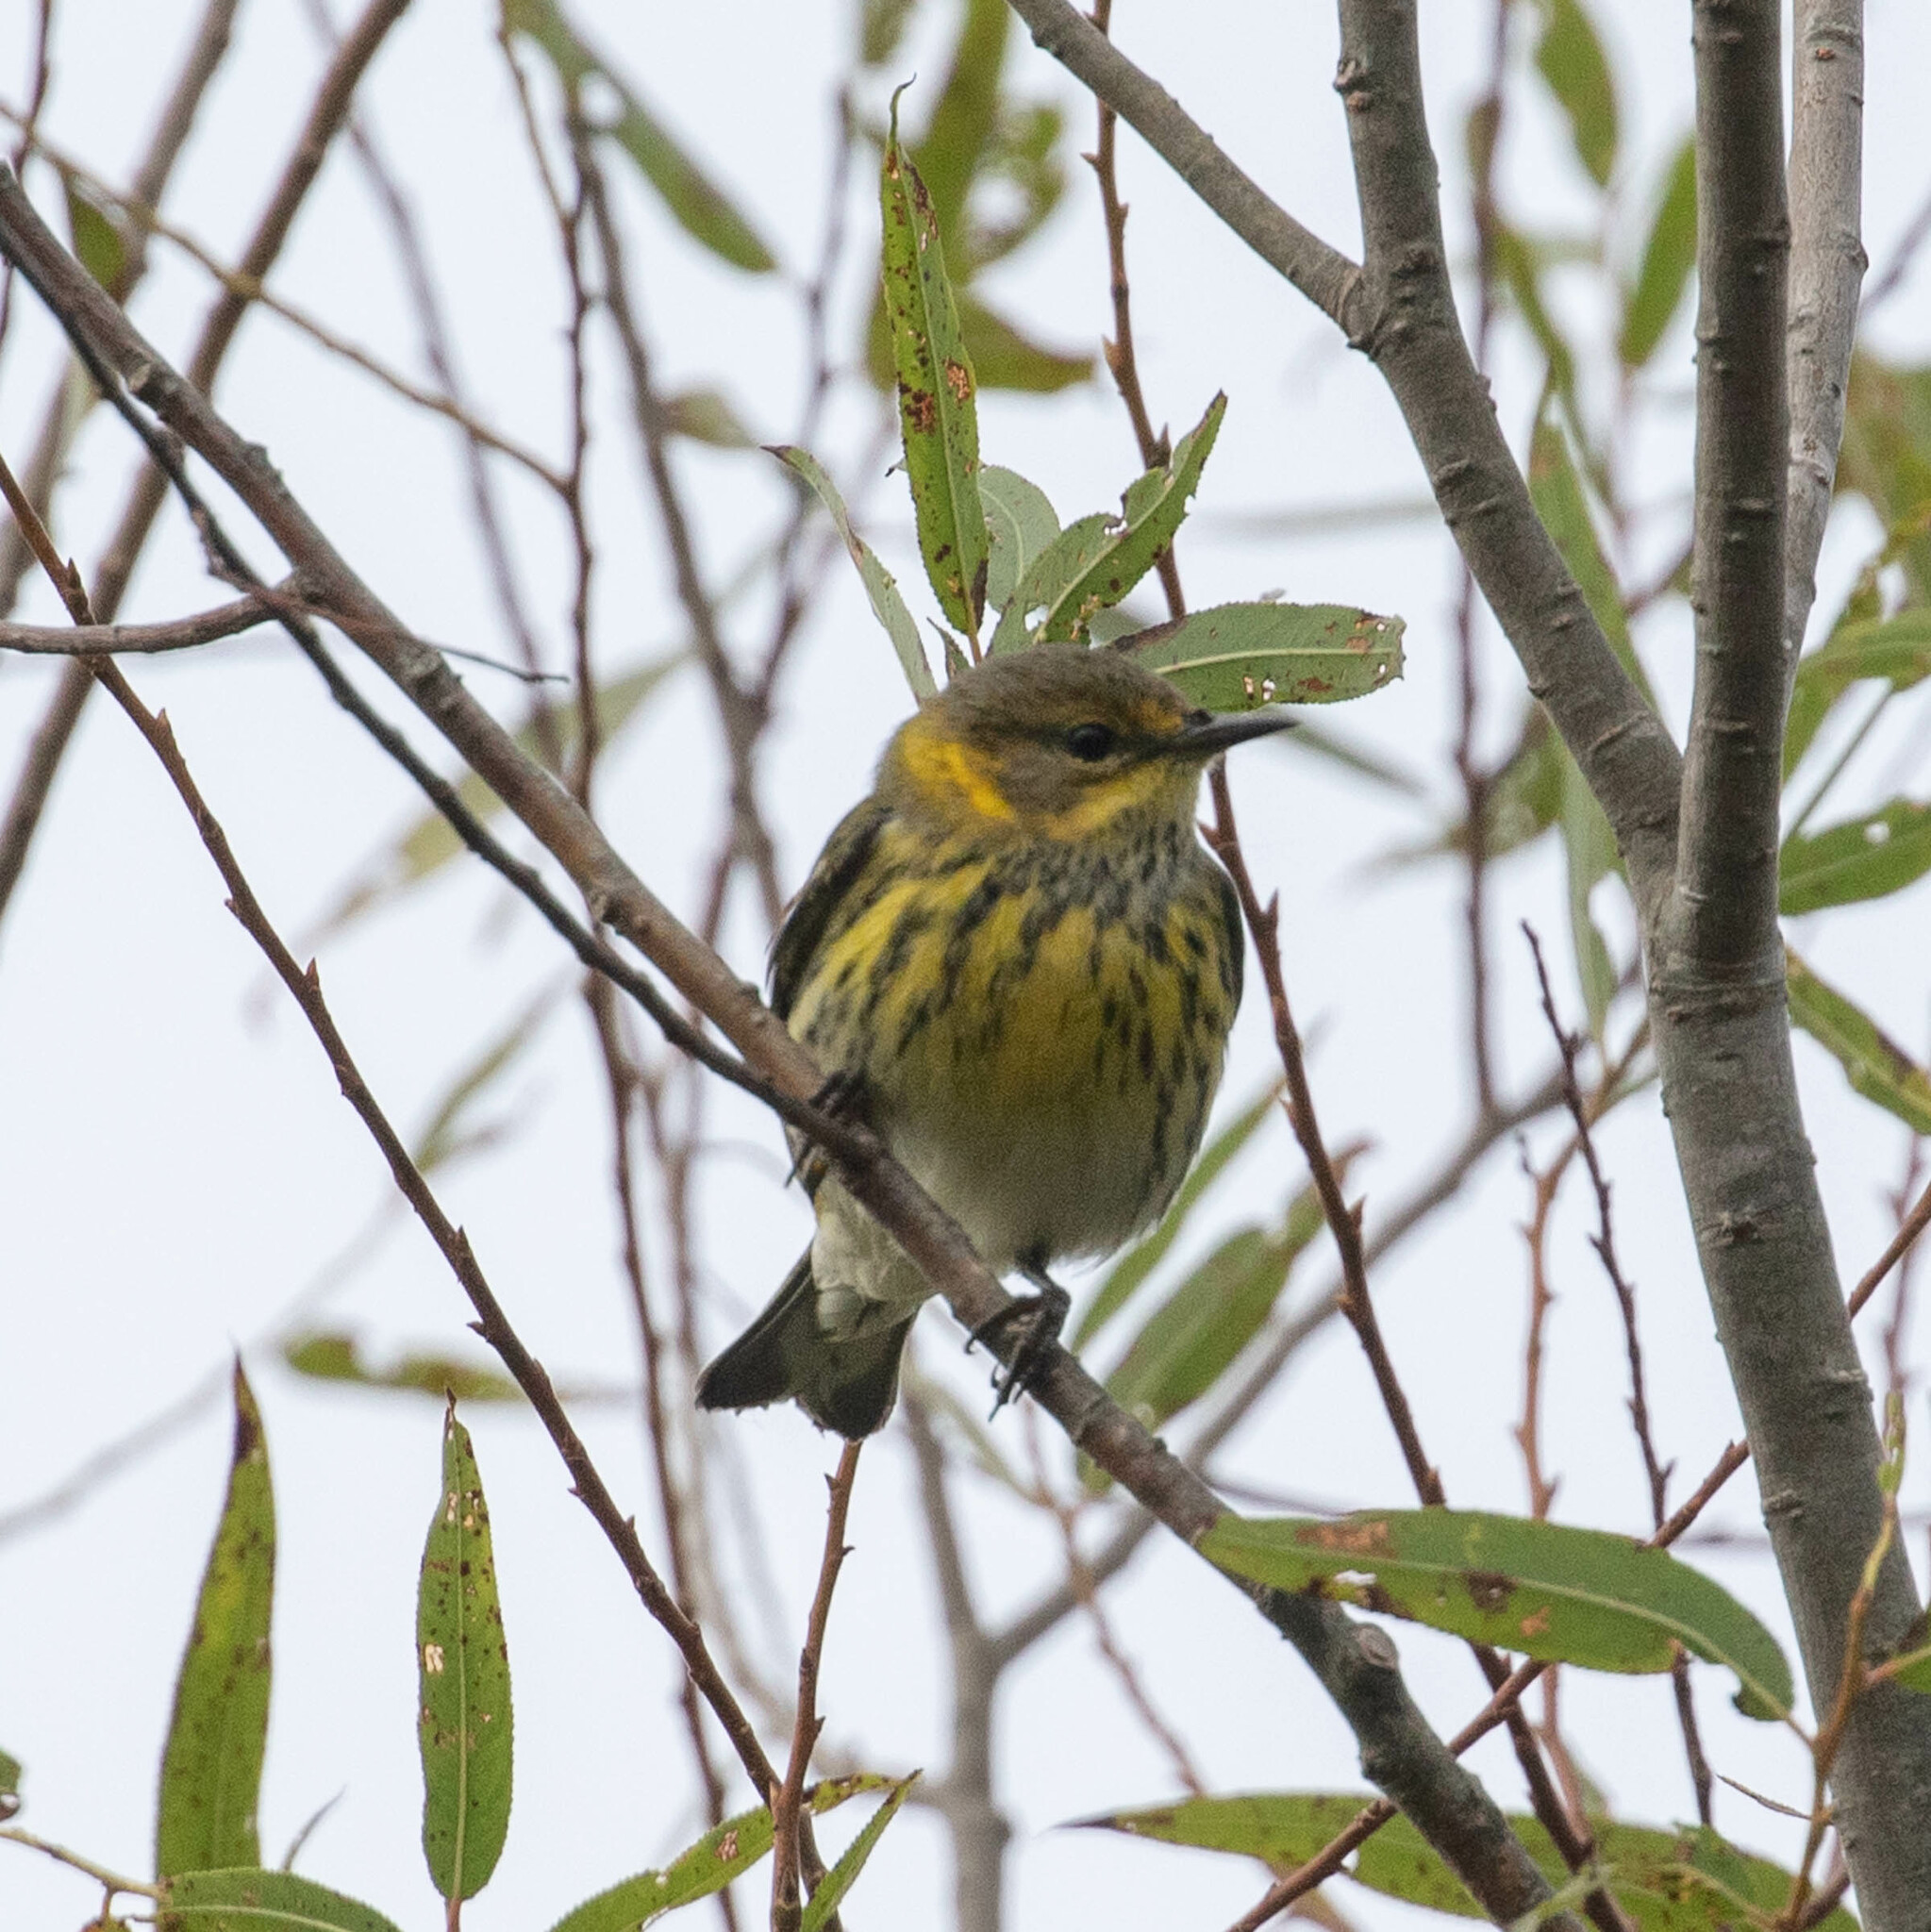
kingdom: Animalia
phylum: Chordata
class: Aves
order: Passeriformes
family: Parulidae
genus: Setophaga
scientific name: Setophaga tigrina
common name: Cape may warbler
